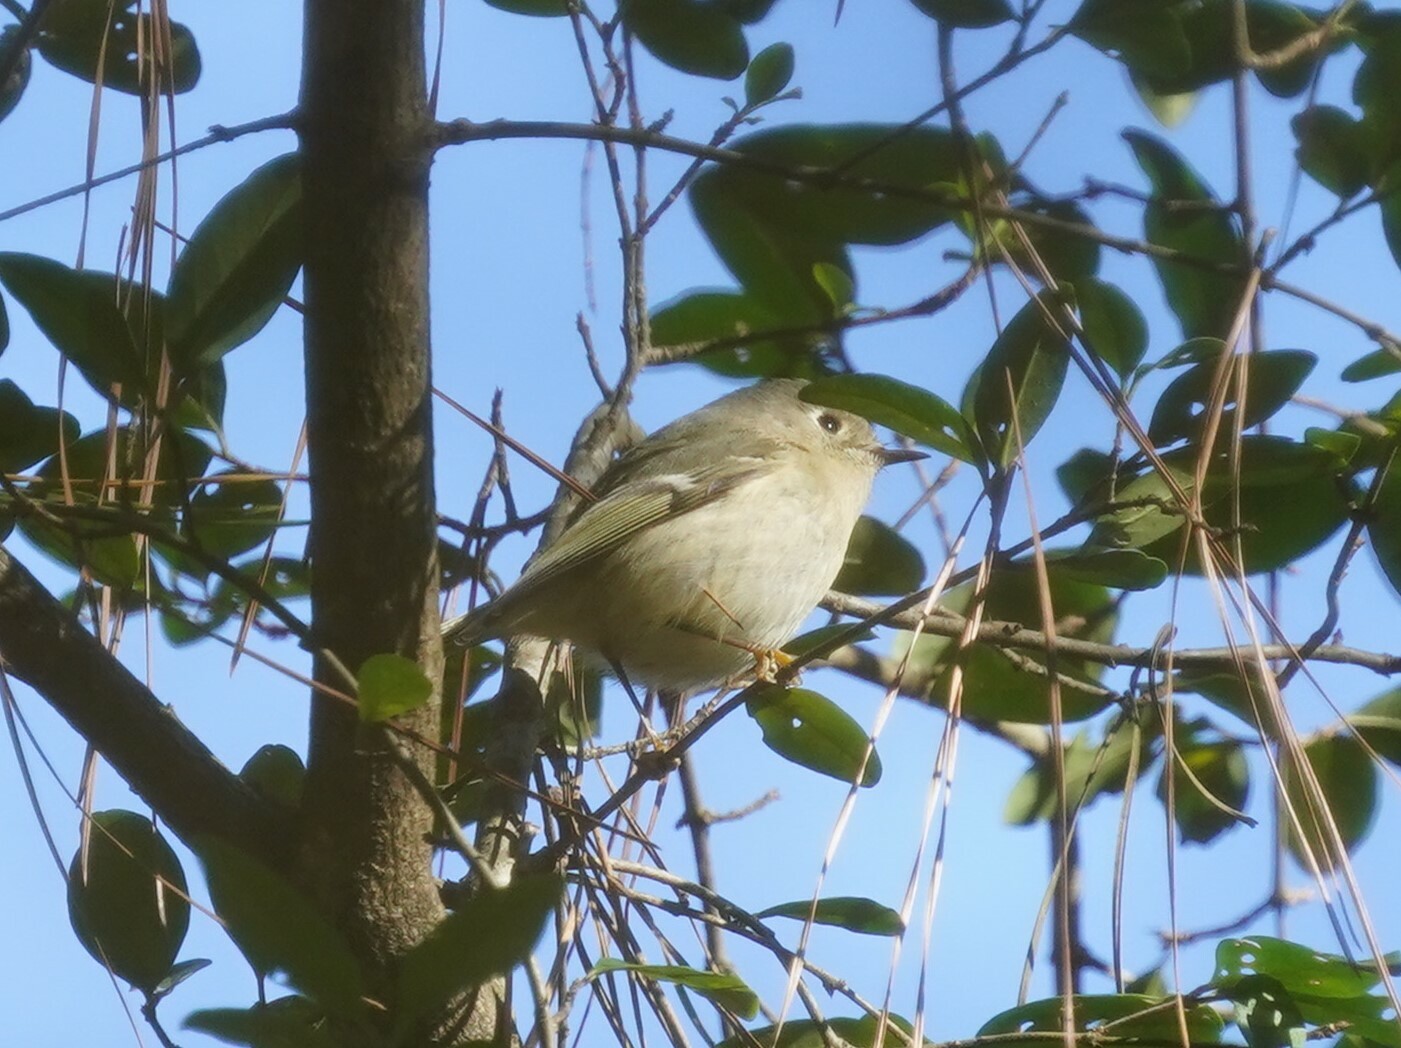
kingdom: Animalia
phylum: Chordata
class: Aves
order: Passeriformes
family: Regulidae
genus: Regulus
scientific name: Regulus calendula
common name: Ruby-crowned kinglet
